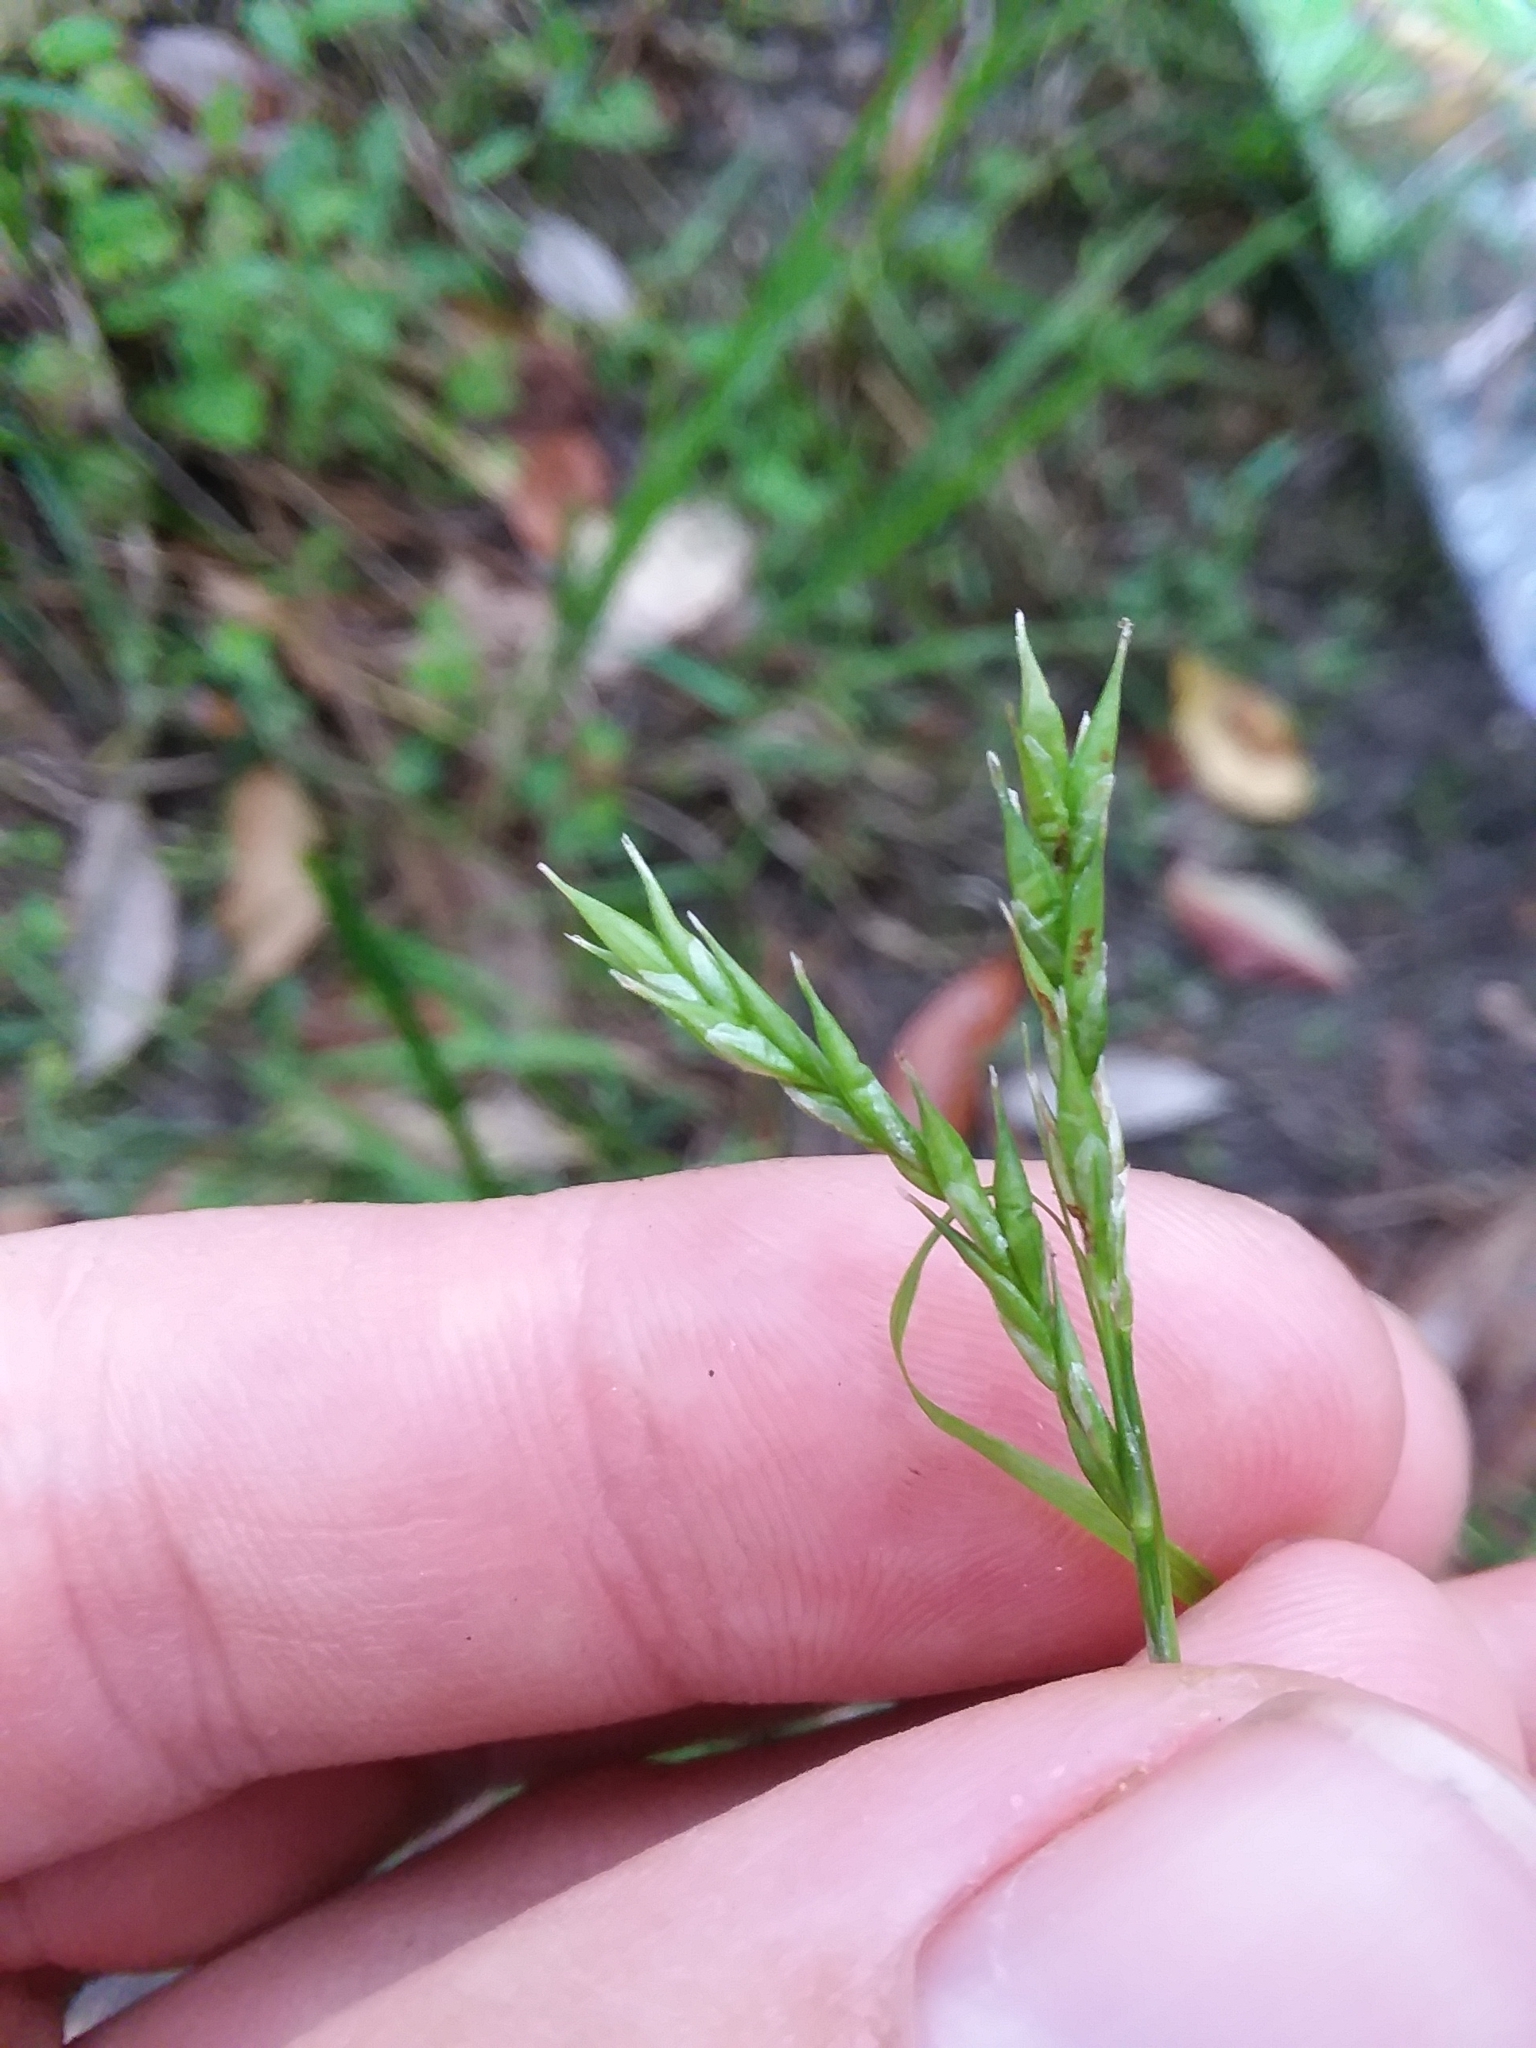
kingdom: Plantae
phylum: Tracheophyta
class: Liliopsida
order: Poales
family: Cyperaceae
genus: Carex
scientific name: Carex venusta
